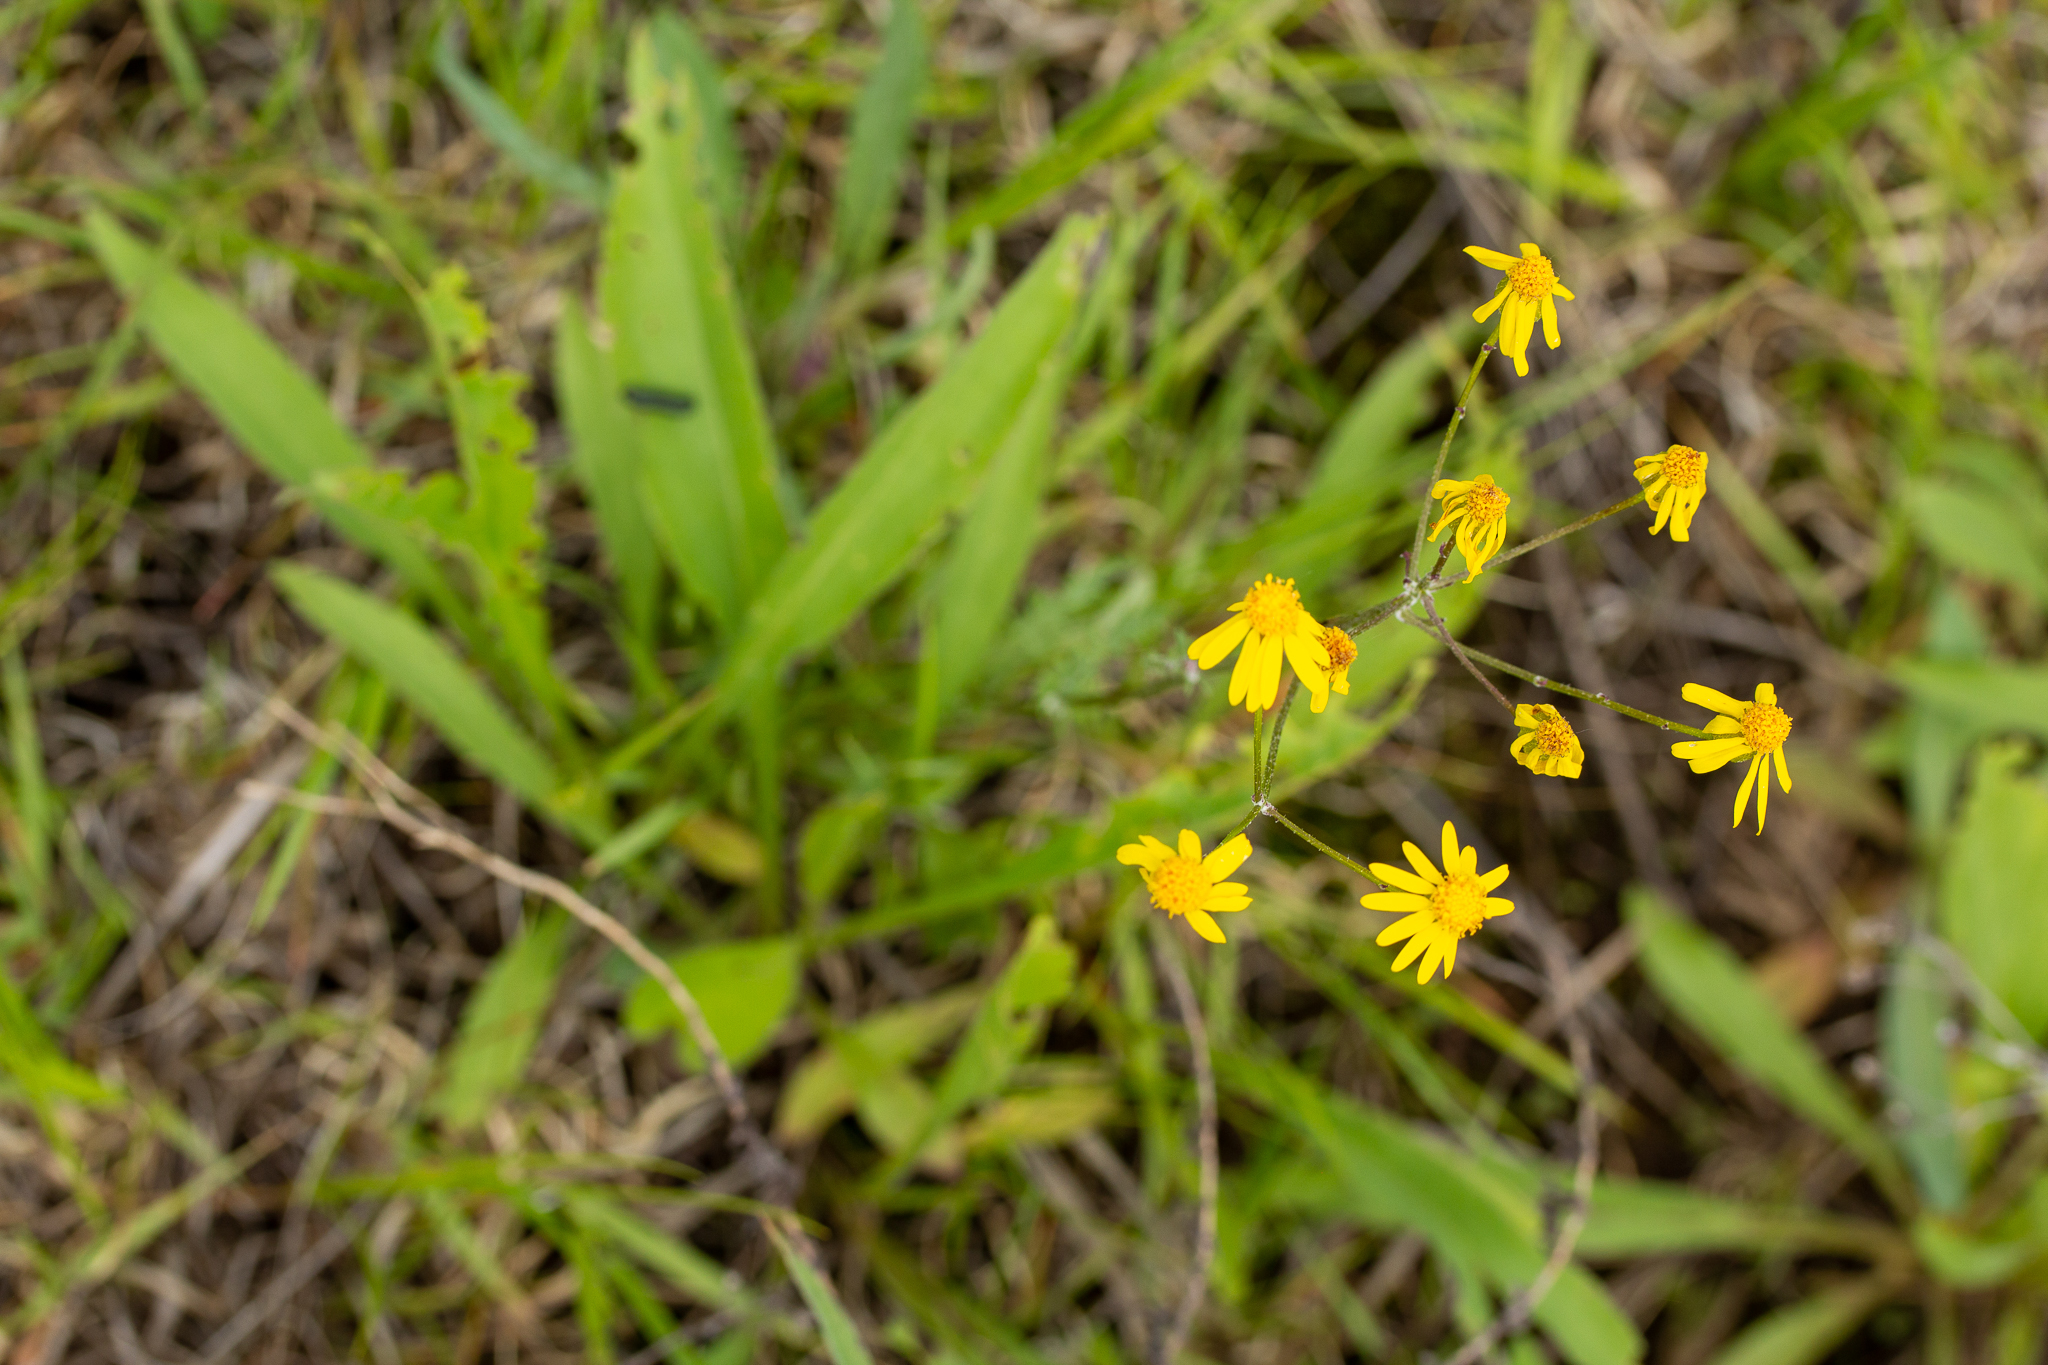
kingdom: Plantae
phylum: Tracheophyta
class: Magnoliopsida
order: Asterales
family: Asteraceae
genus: Packera
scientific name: Packera paupercula
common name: Balsam groundsel
